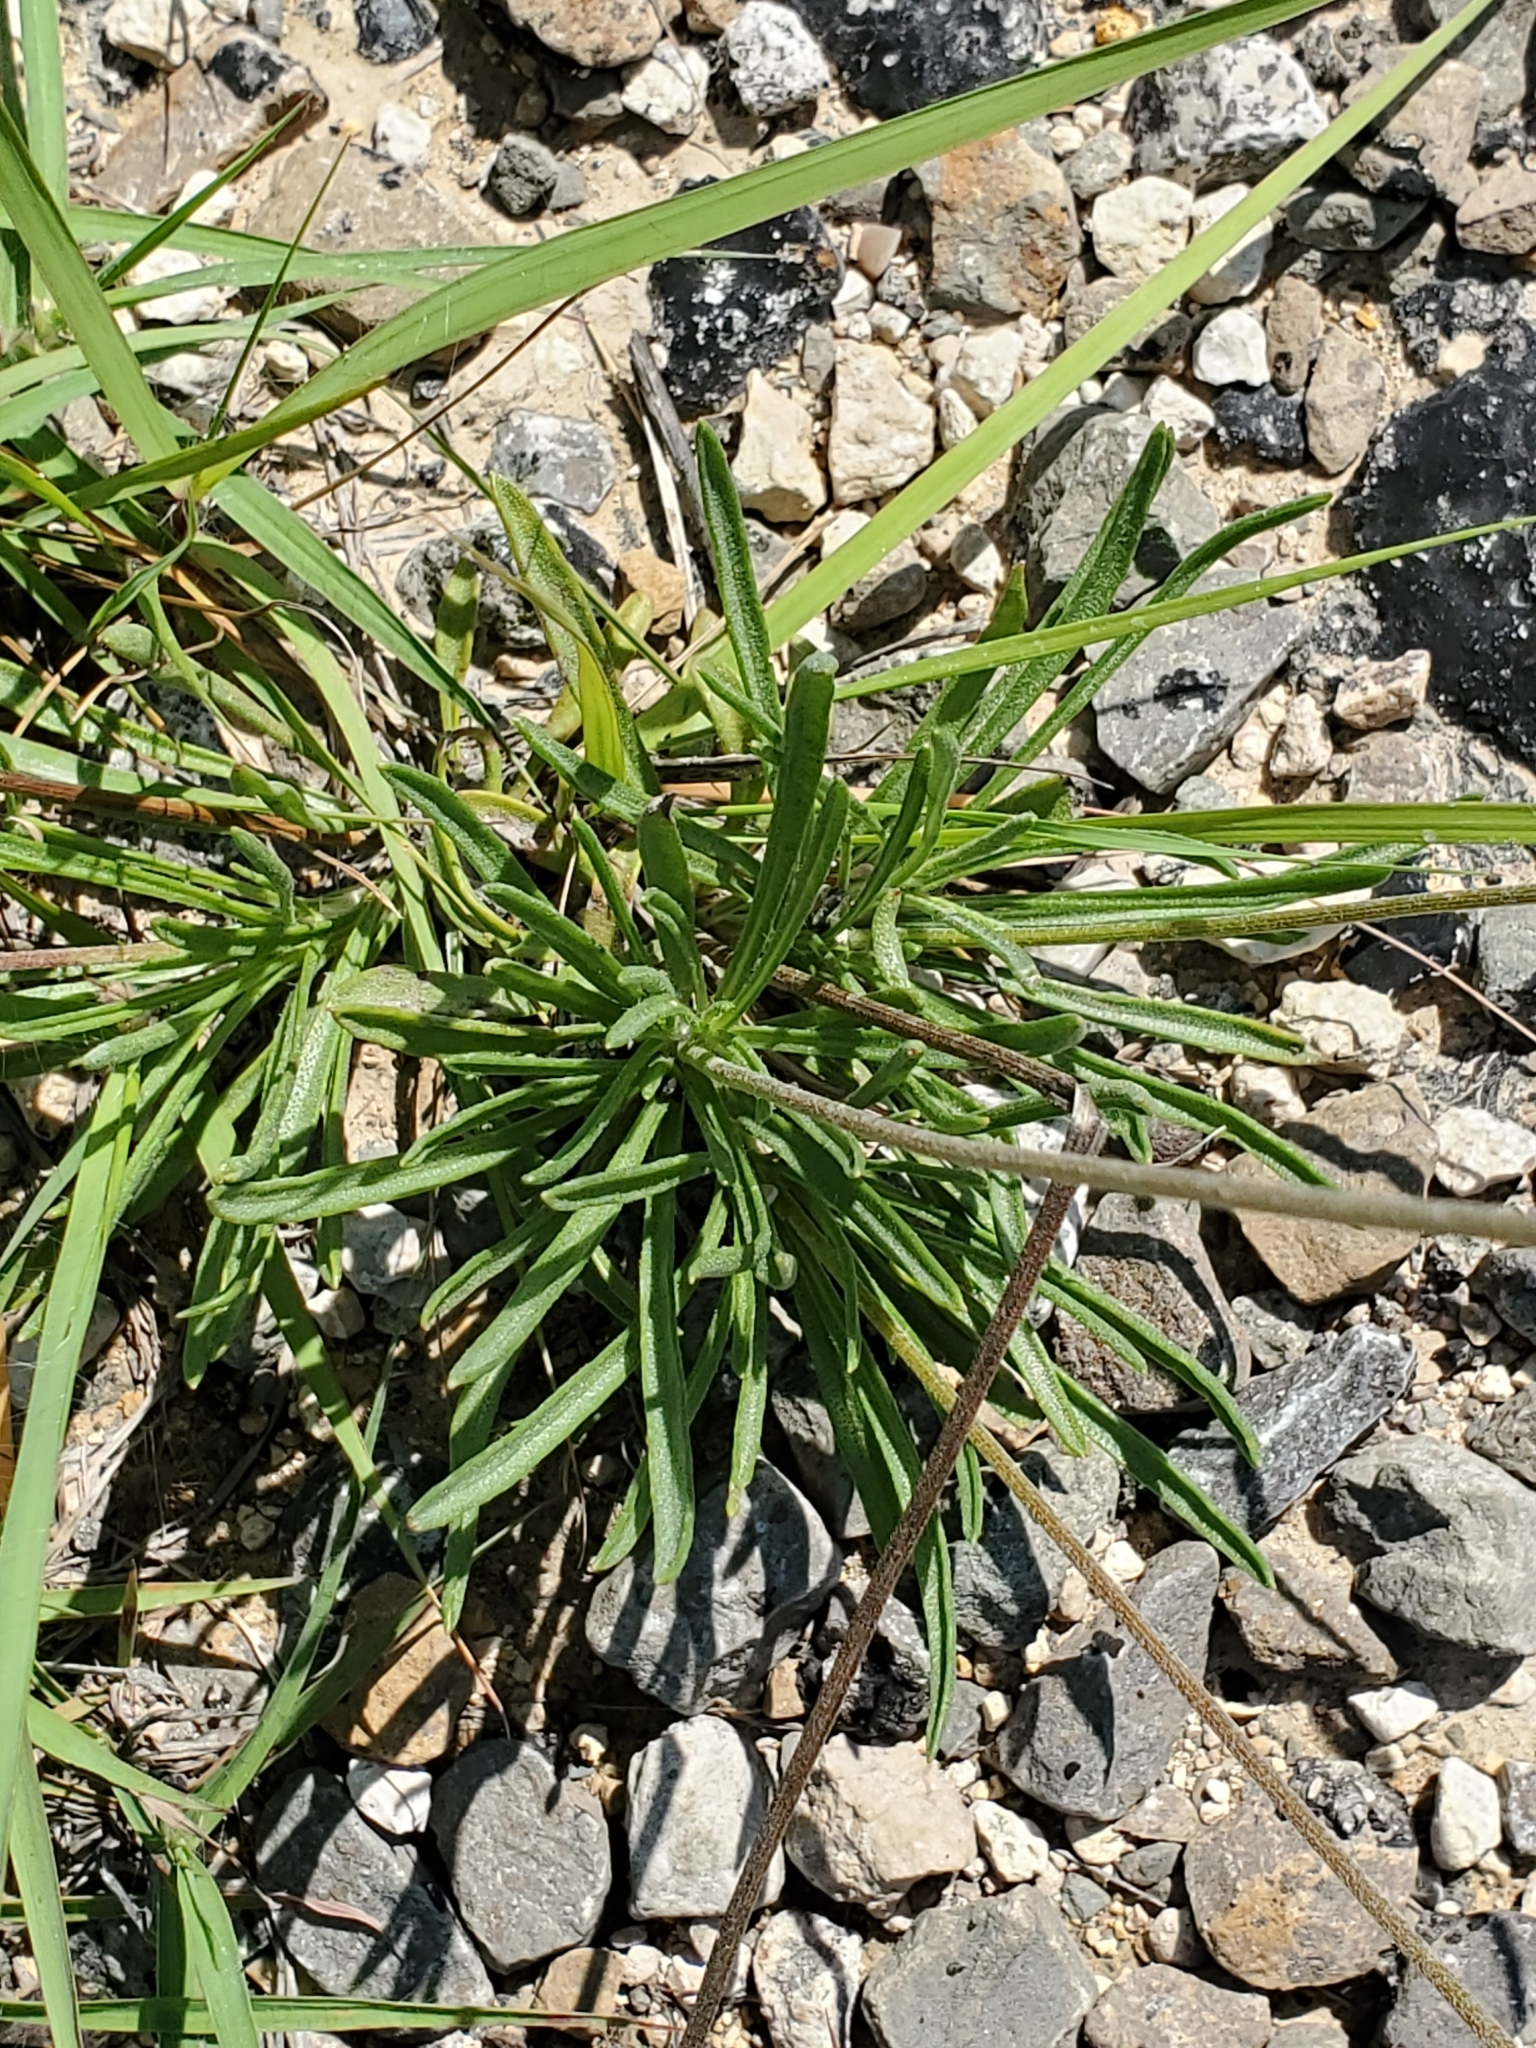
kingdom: Plantae
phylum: Tracheophyta
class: Magnoliopsida
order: Asterales
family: Asteraceae
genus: Tetraneuris
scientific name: Tetraneuris scaposa
